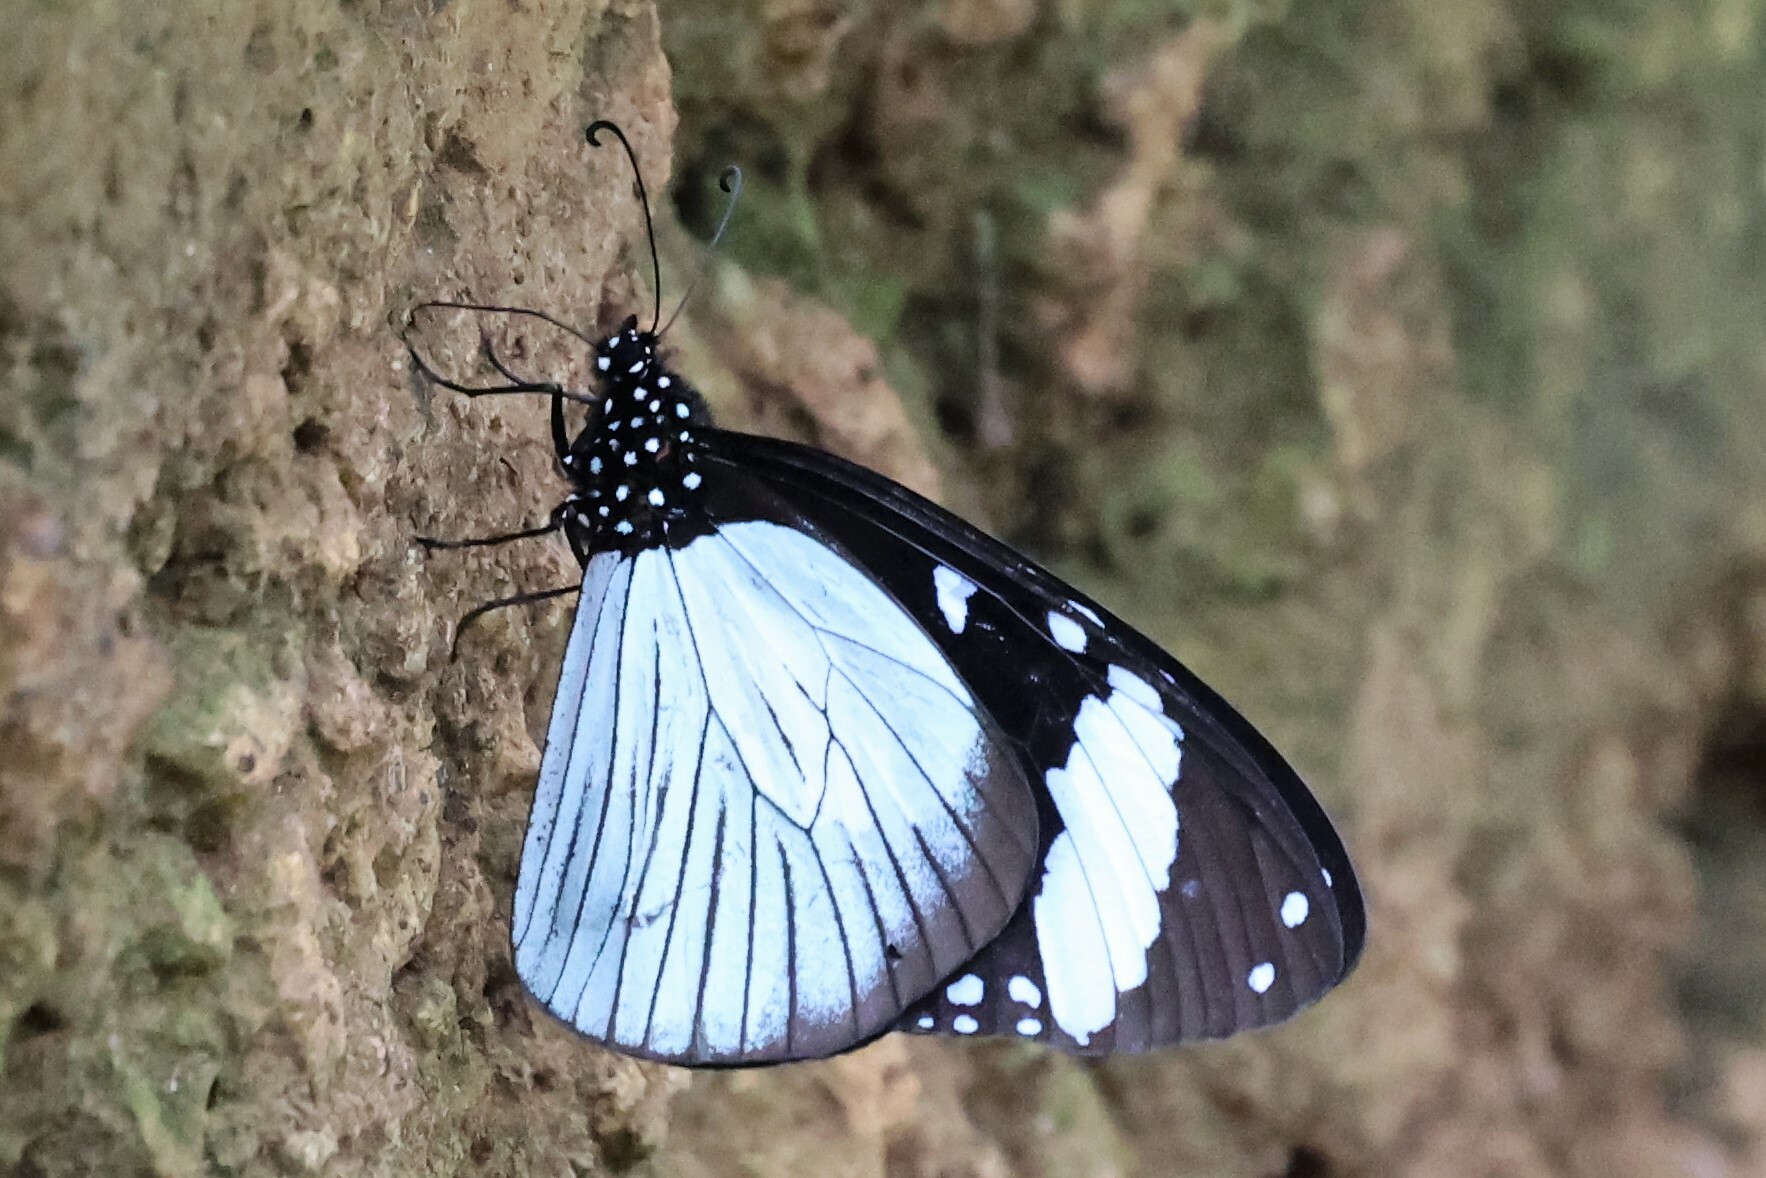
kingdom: Animalia
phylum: Arthropoda
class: Insecta
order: Lepidoptera
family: Nymphalidae
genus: Amauris
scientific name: Amauris niavius
